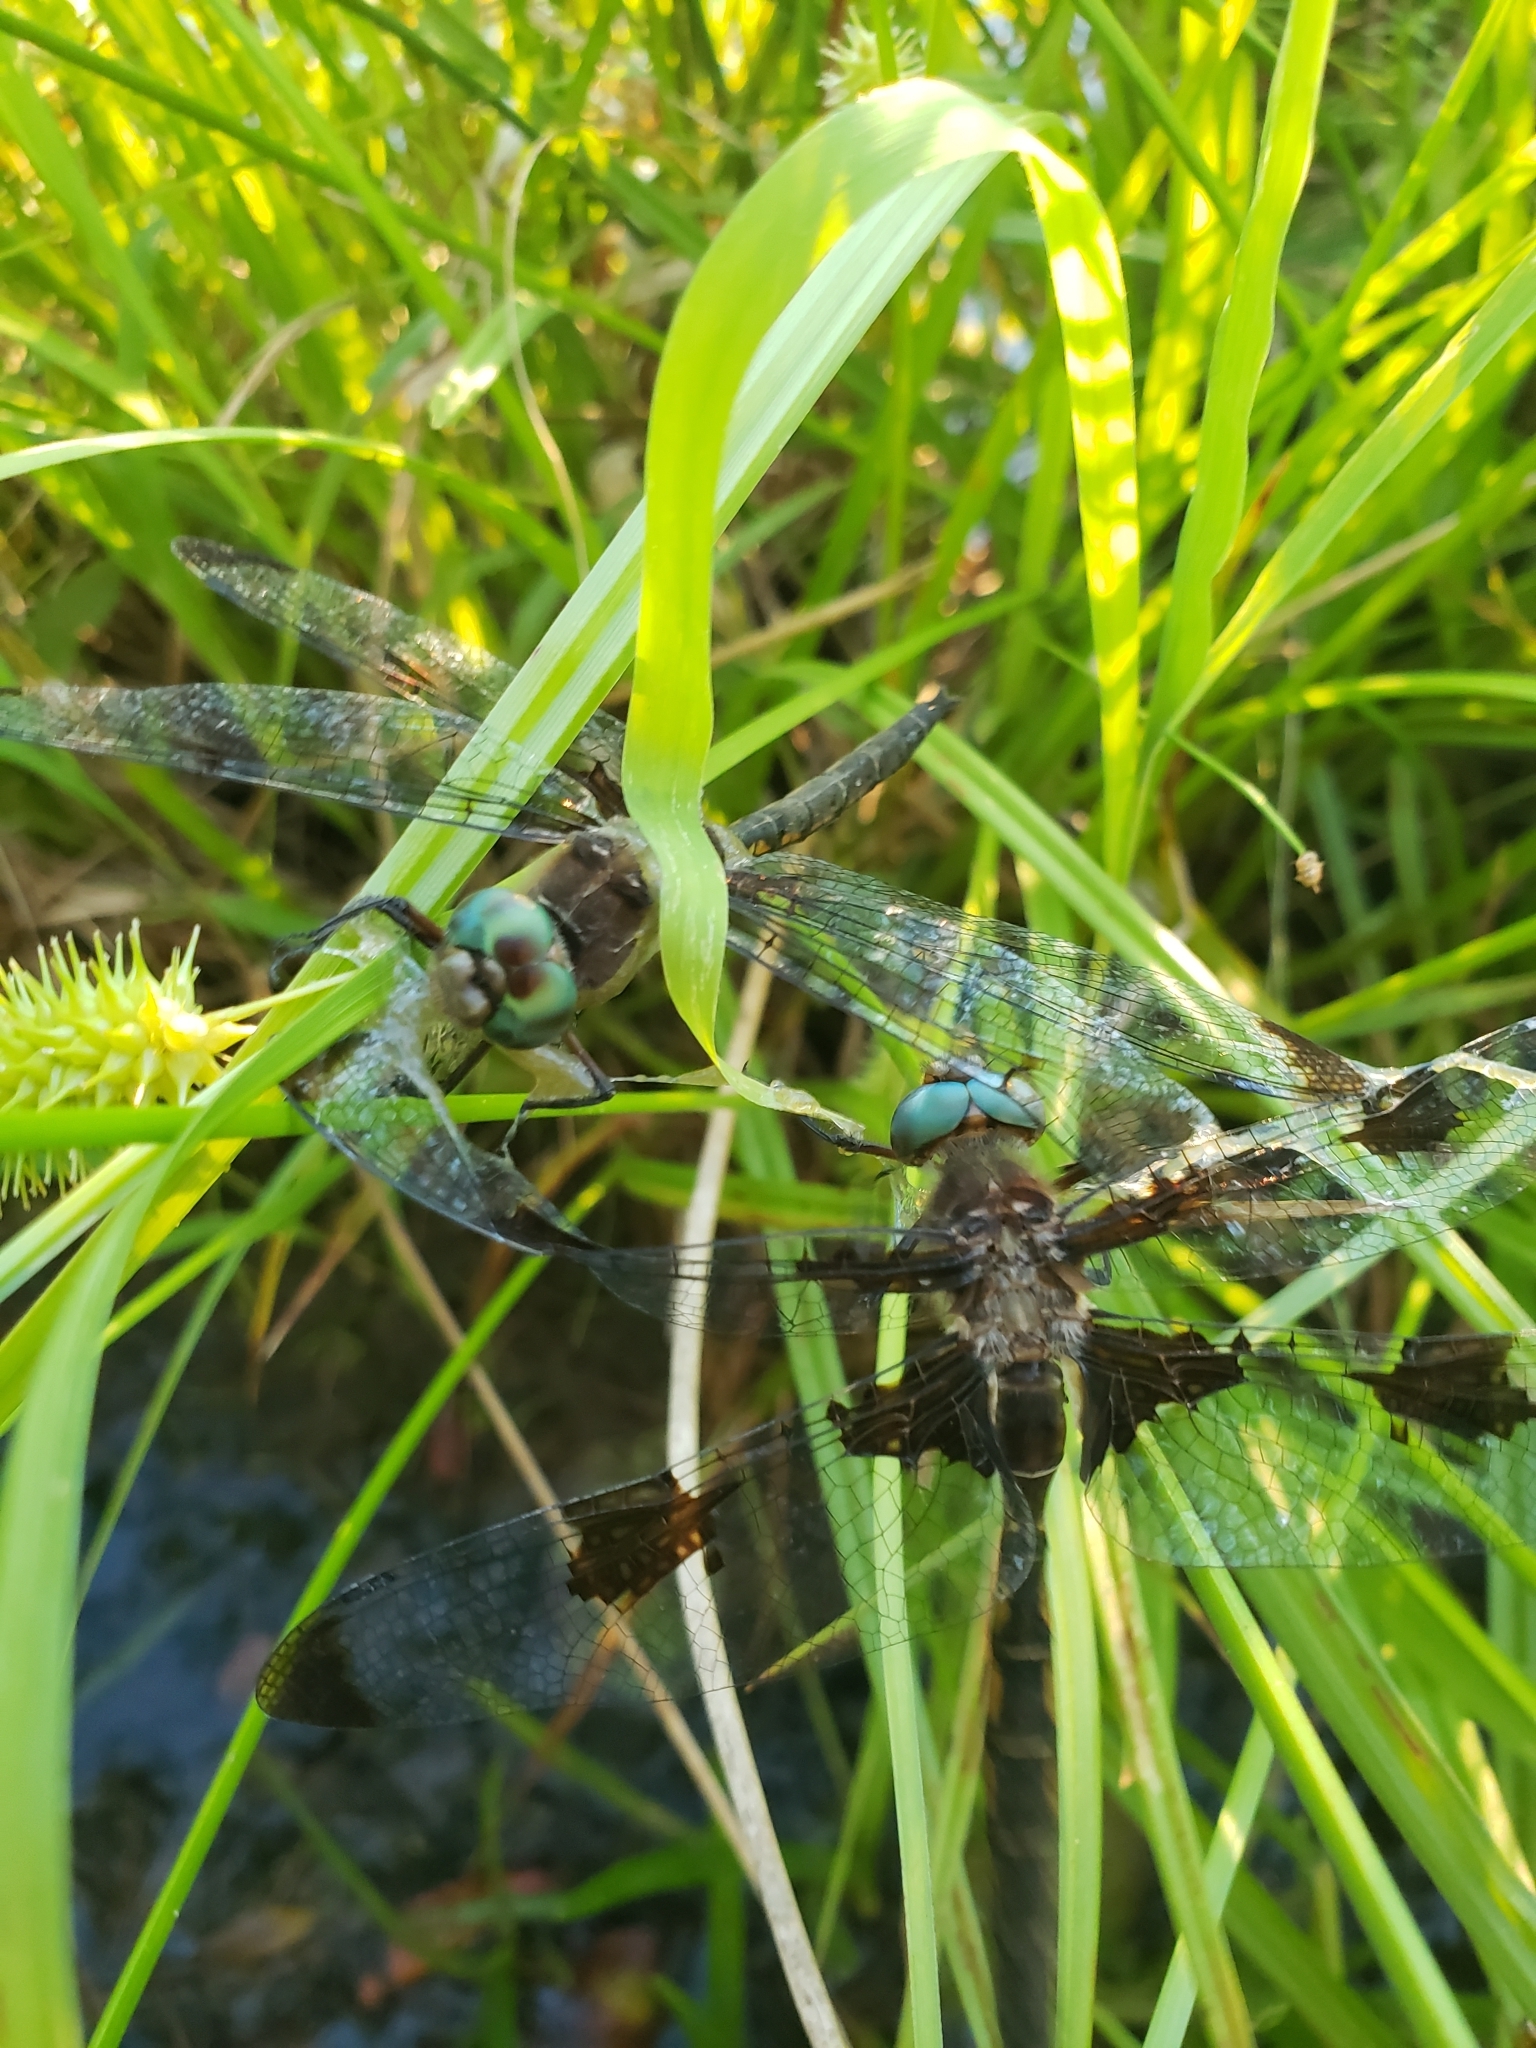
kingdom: Animalia
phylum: Arthropoda
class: Insecta
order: Odonata
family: Corduliidae
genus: Epitheca
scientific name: Epitheca princeps
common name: Prince baskettail
